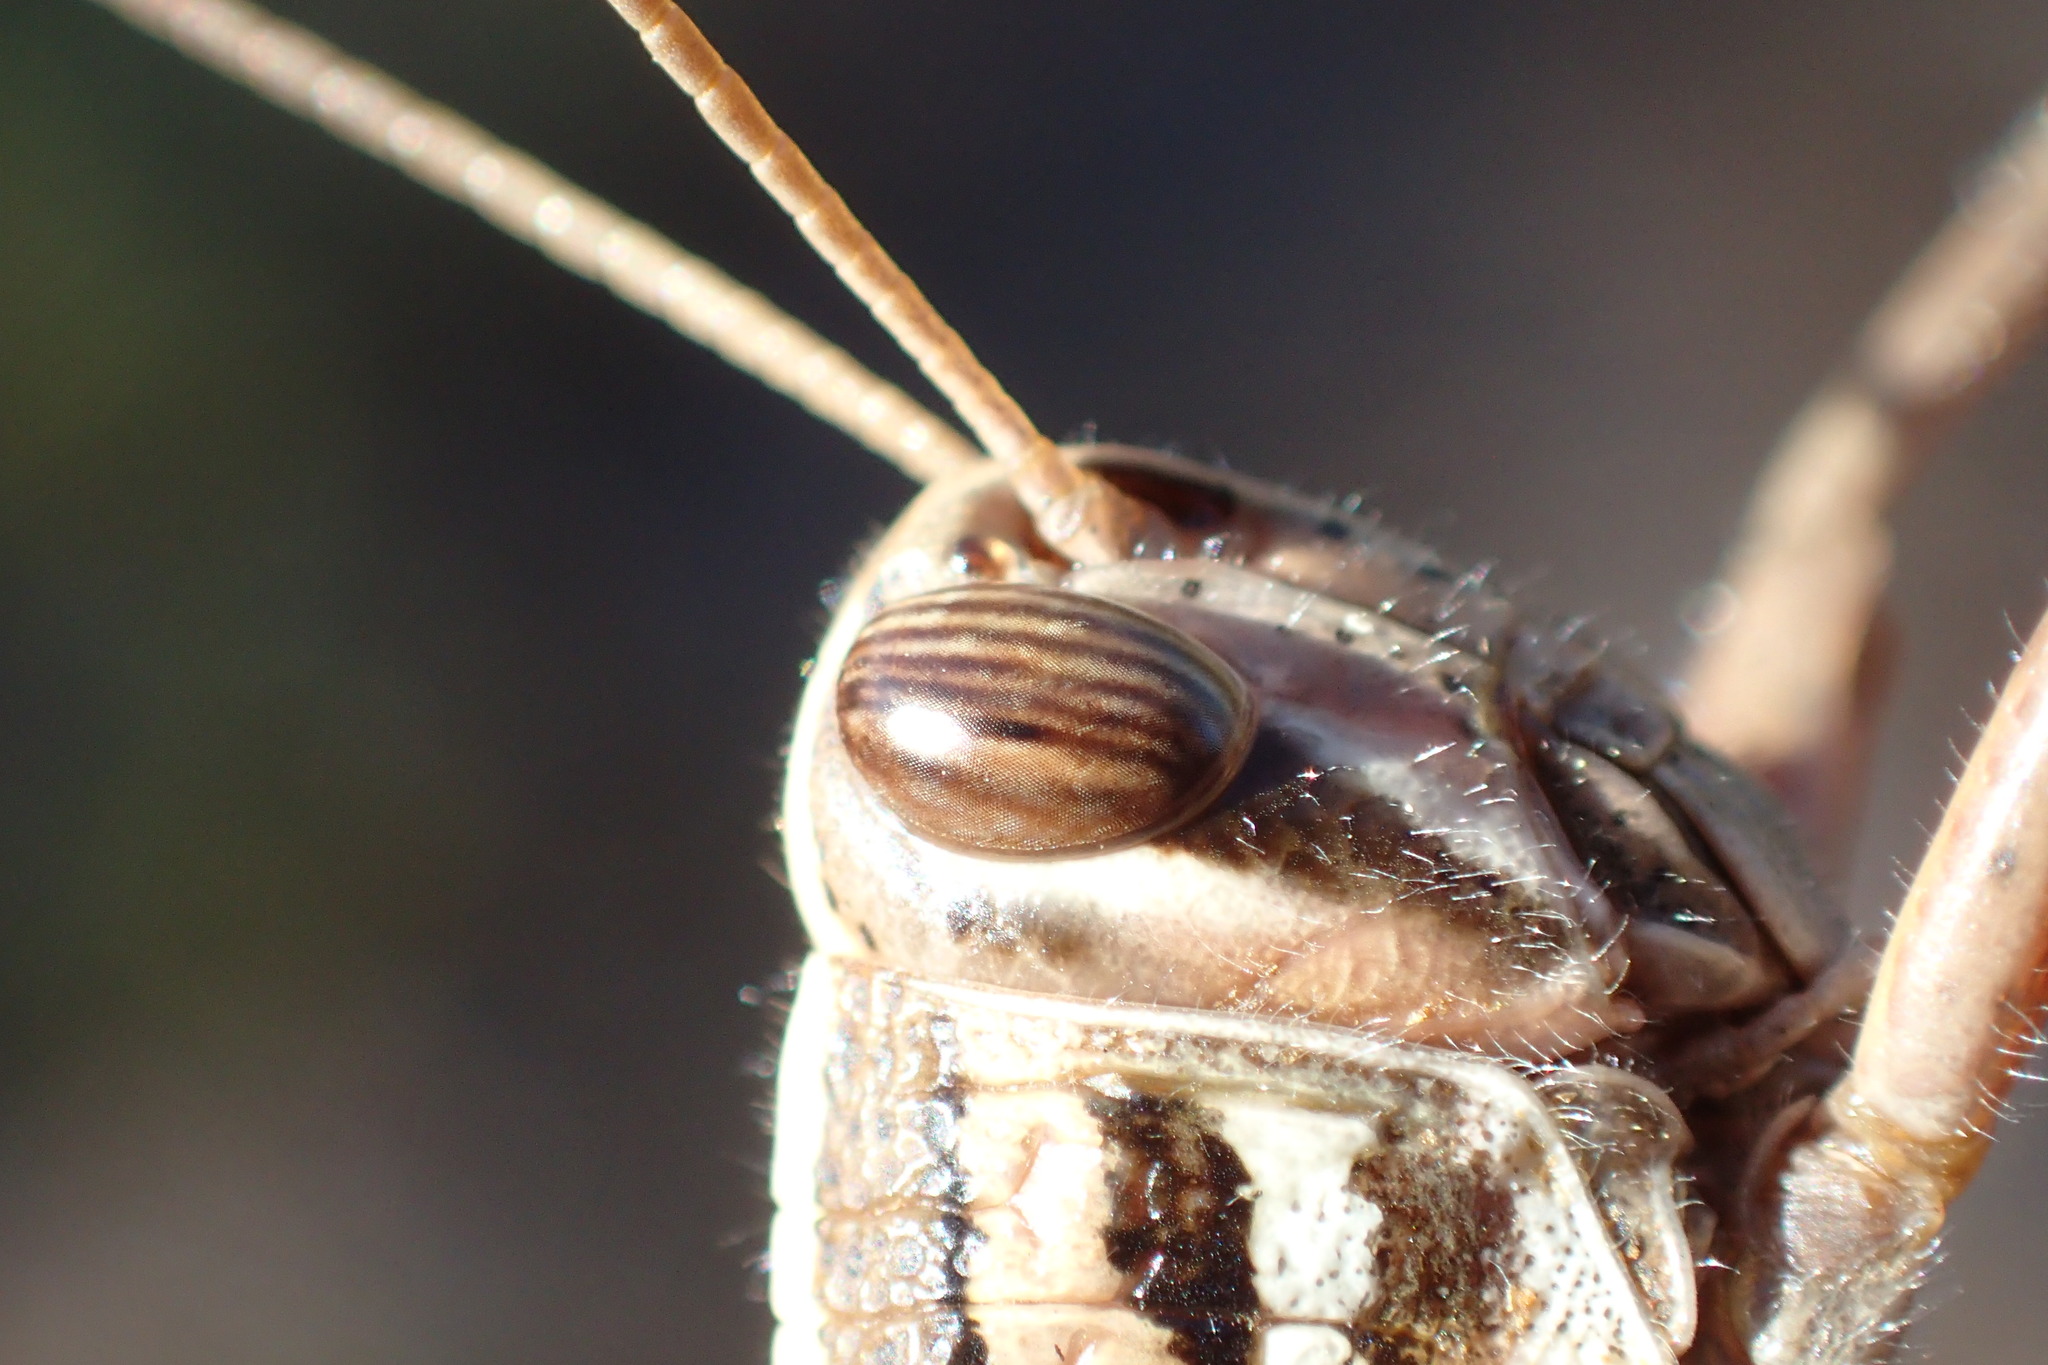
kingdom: Animalia
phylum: Arthropoda
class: Insecta
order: Orthoptera
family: Acrididae
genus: Schistocerca
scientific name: Schistocerca americana
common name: American bird locust
